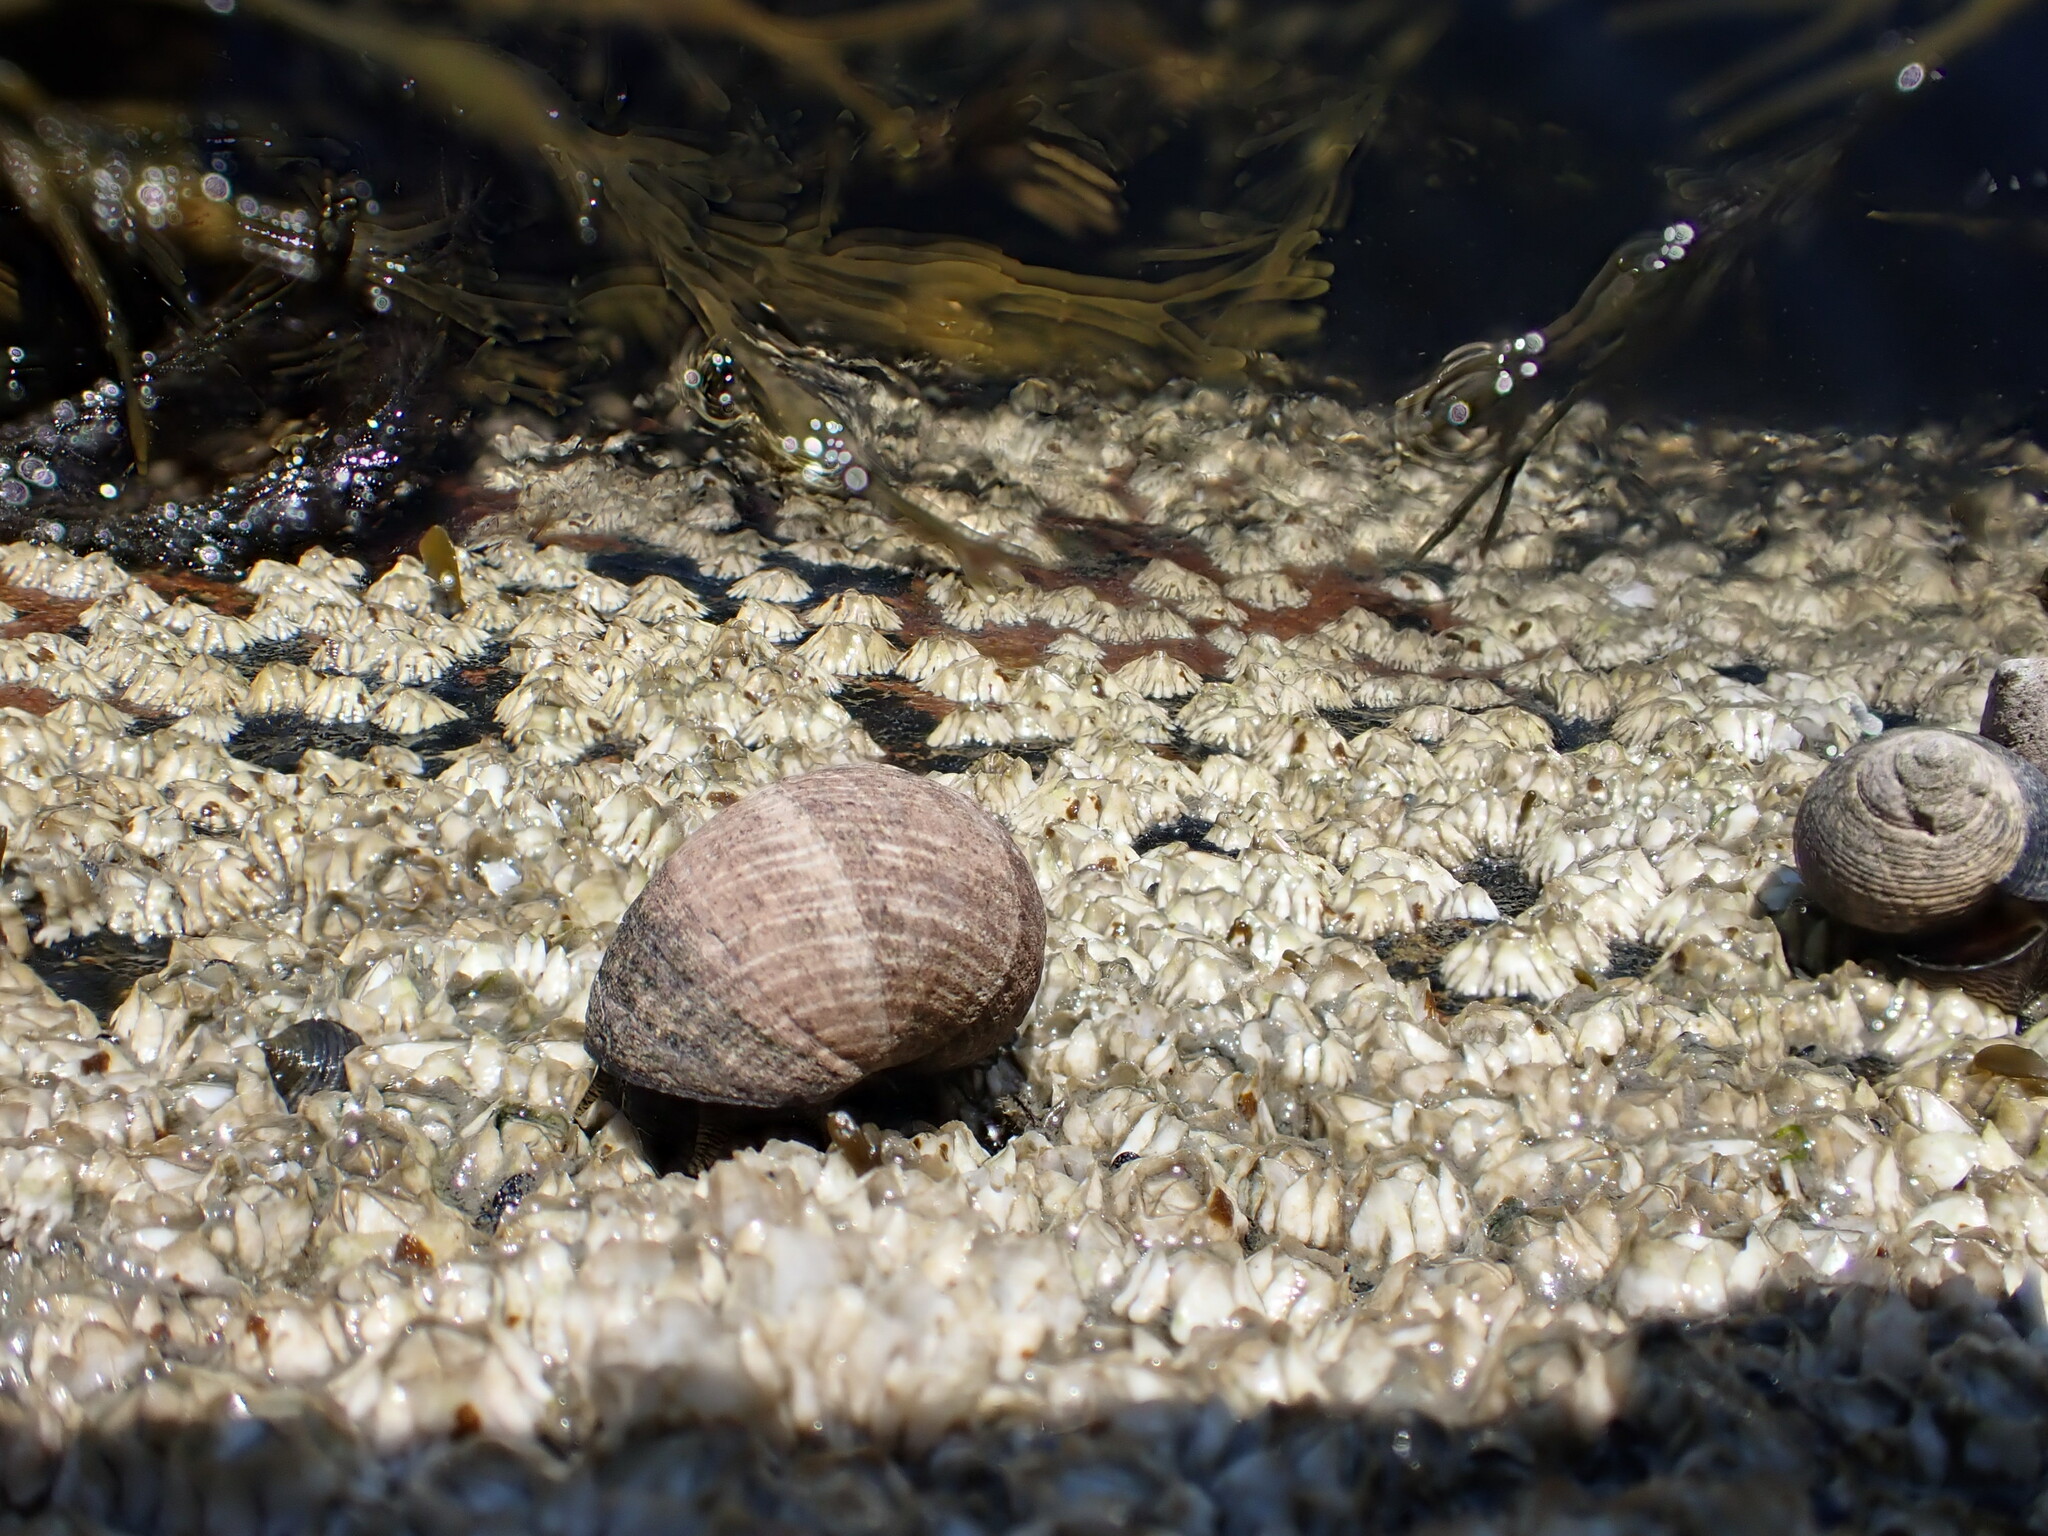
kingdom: Animalia
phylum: Mollusca
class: Gastropoda
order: Littorinimorpha
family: Littorinidae
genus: Littorina
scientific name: Littorina littorea
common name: Common periwinkle
